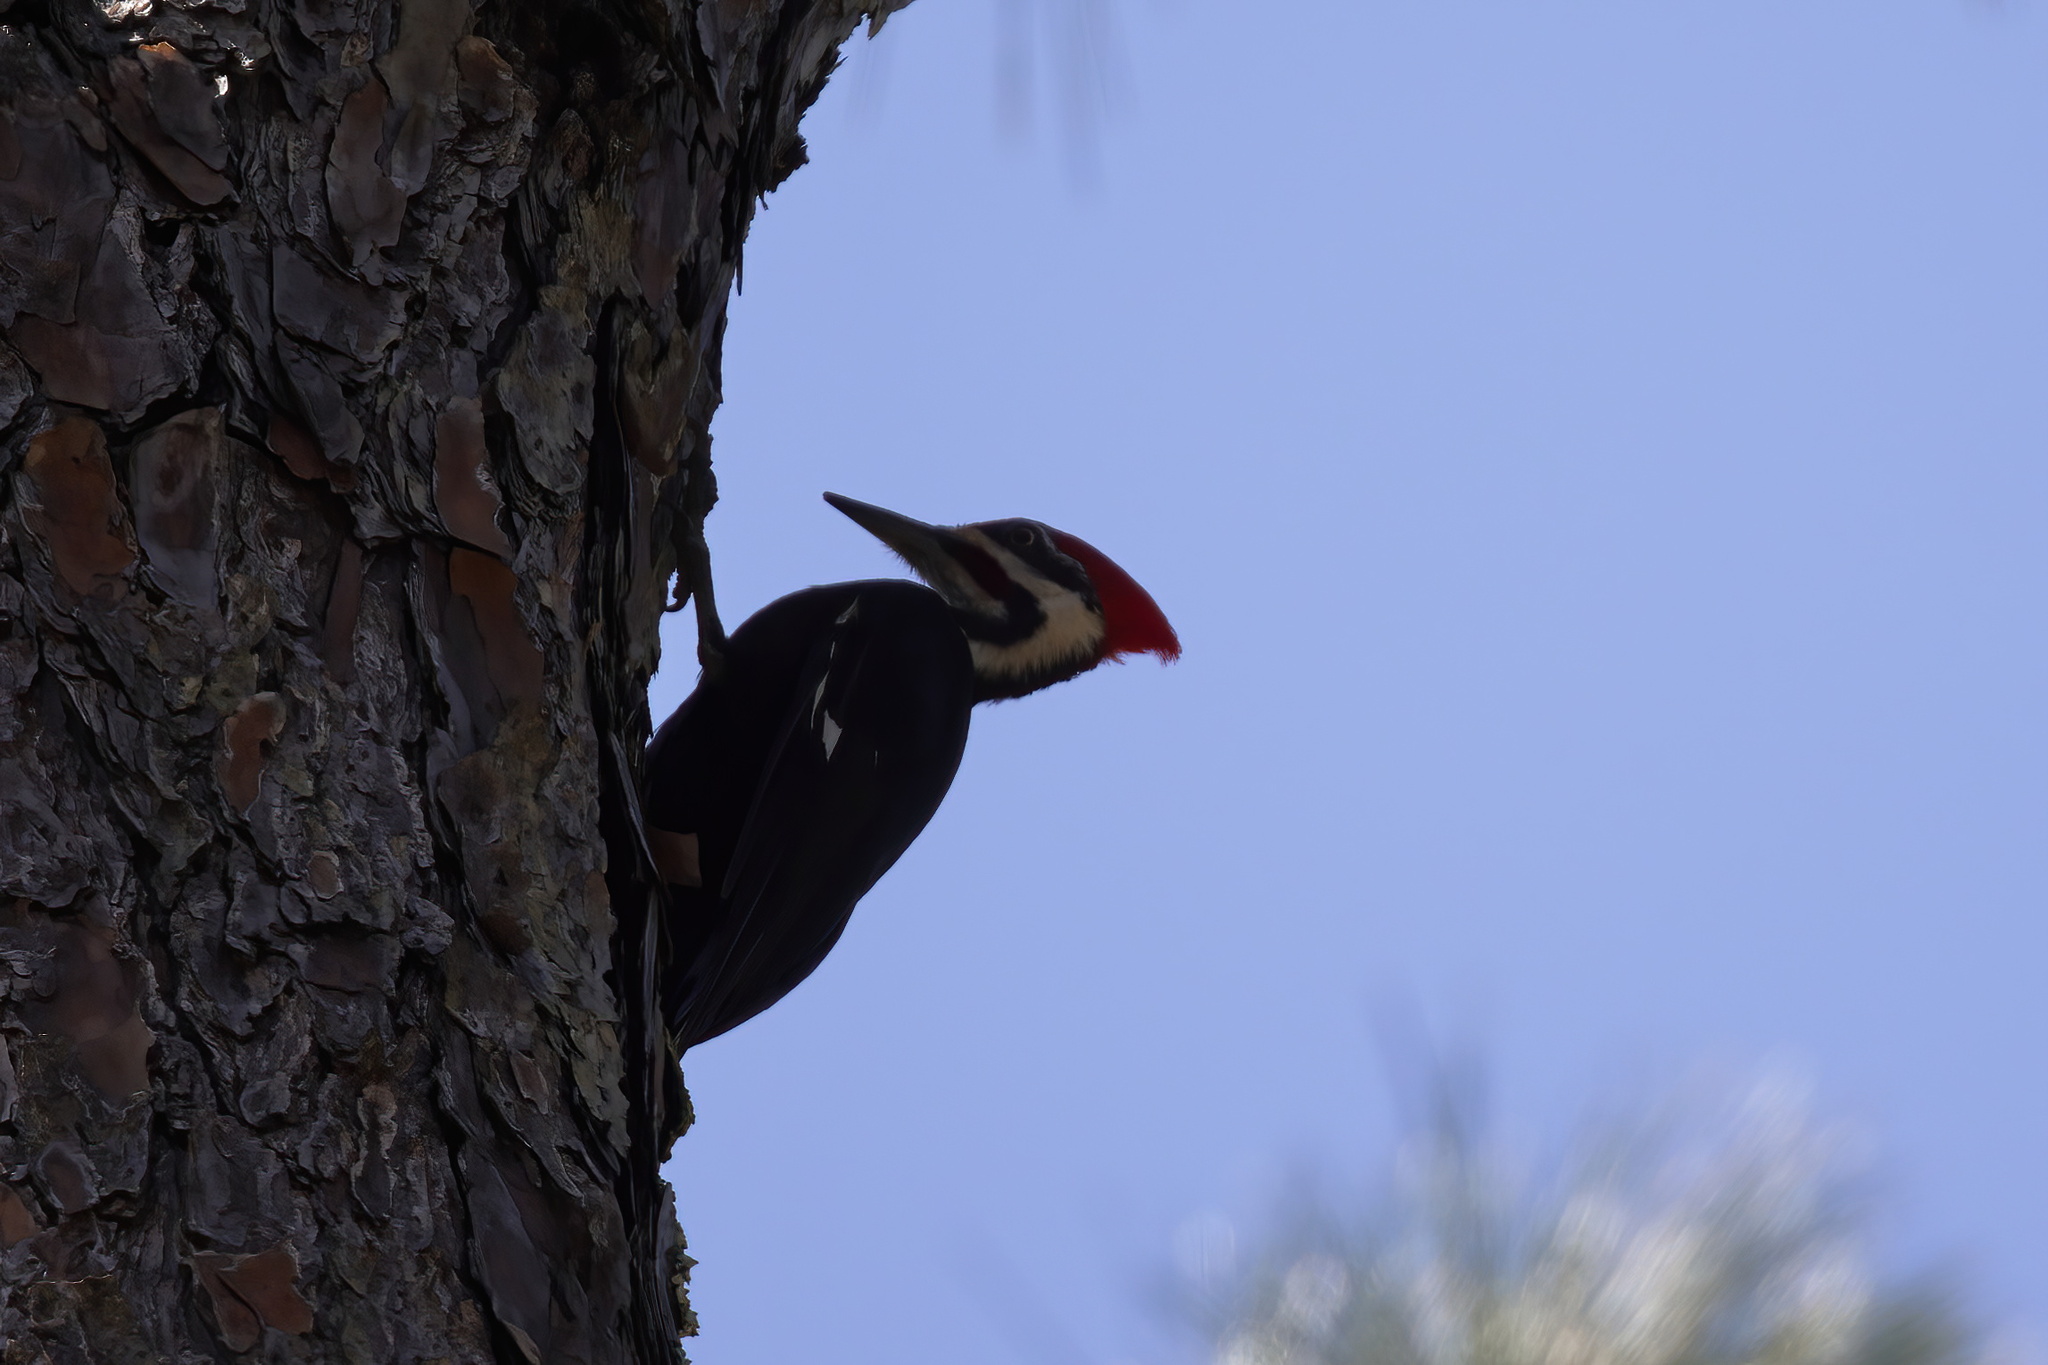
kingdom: Animalia
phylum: Chordata
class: Aves
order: Piciformes
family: Picidae
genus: Dryocopus
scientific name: Dryocopus pileatus
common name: Pileated woodpecker
